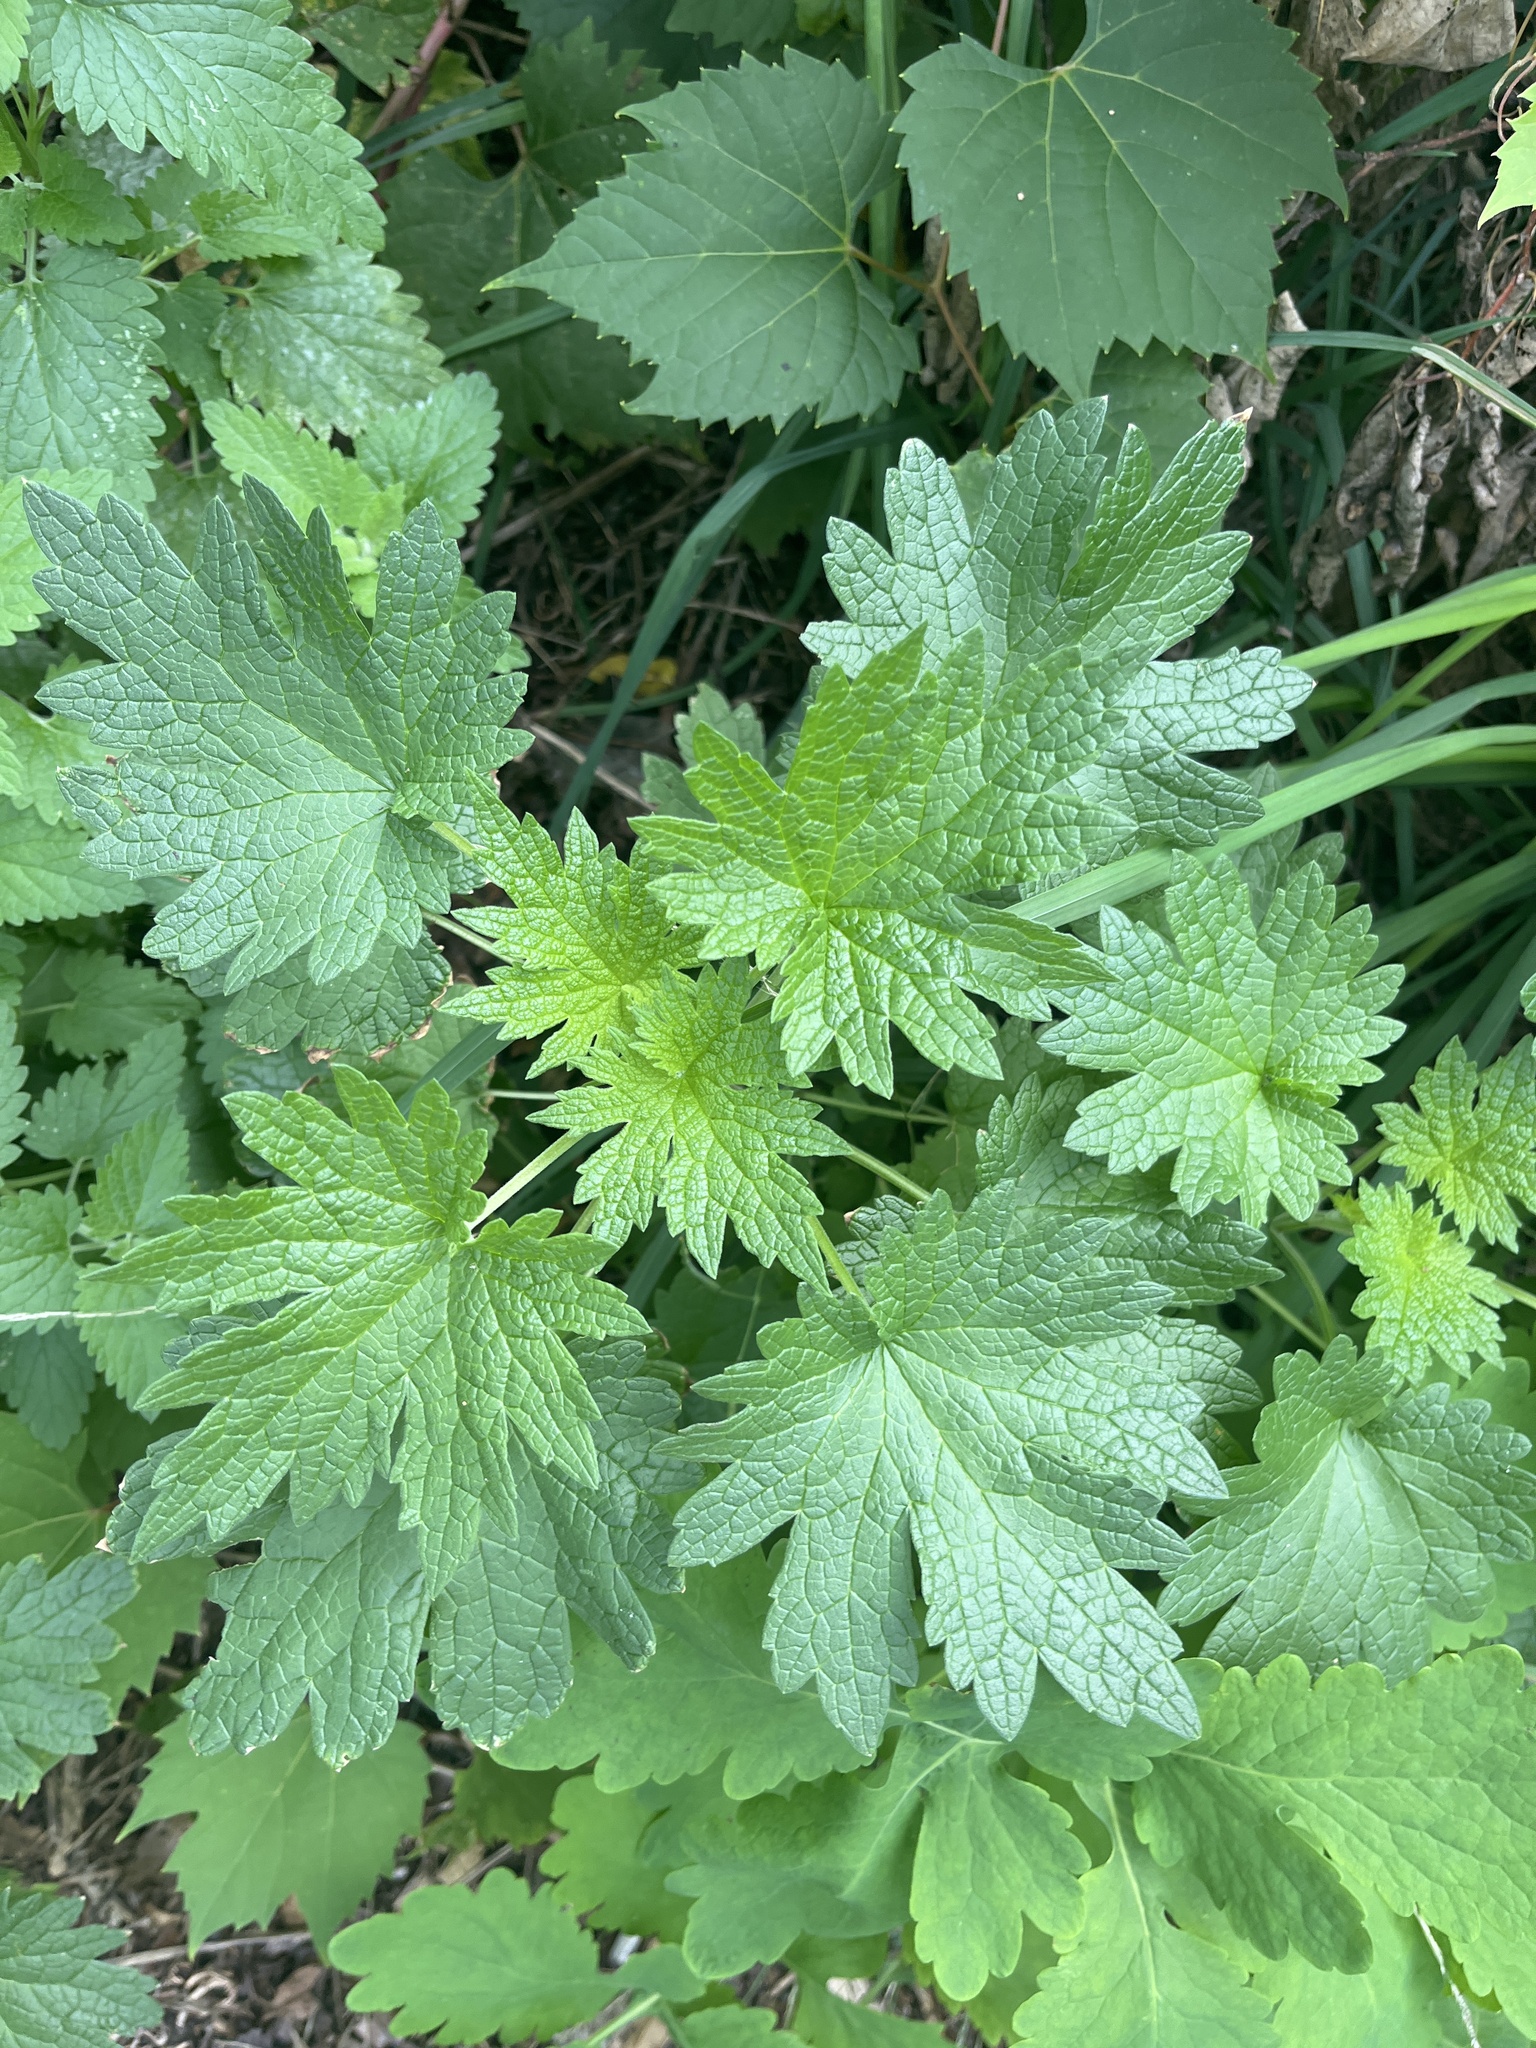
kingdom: Plantae
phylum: Tracheophyta
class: Magnoliopsida
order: Lamiales
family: Lamiaceae
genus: Leonurus
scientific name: Leonurus cardiaca
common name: Motherwort
